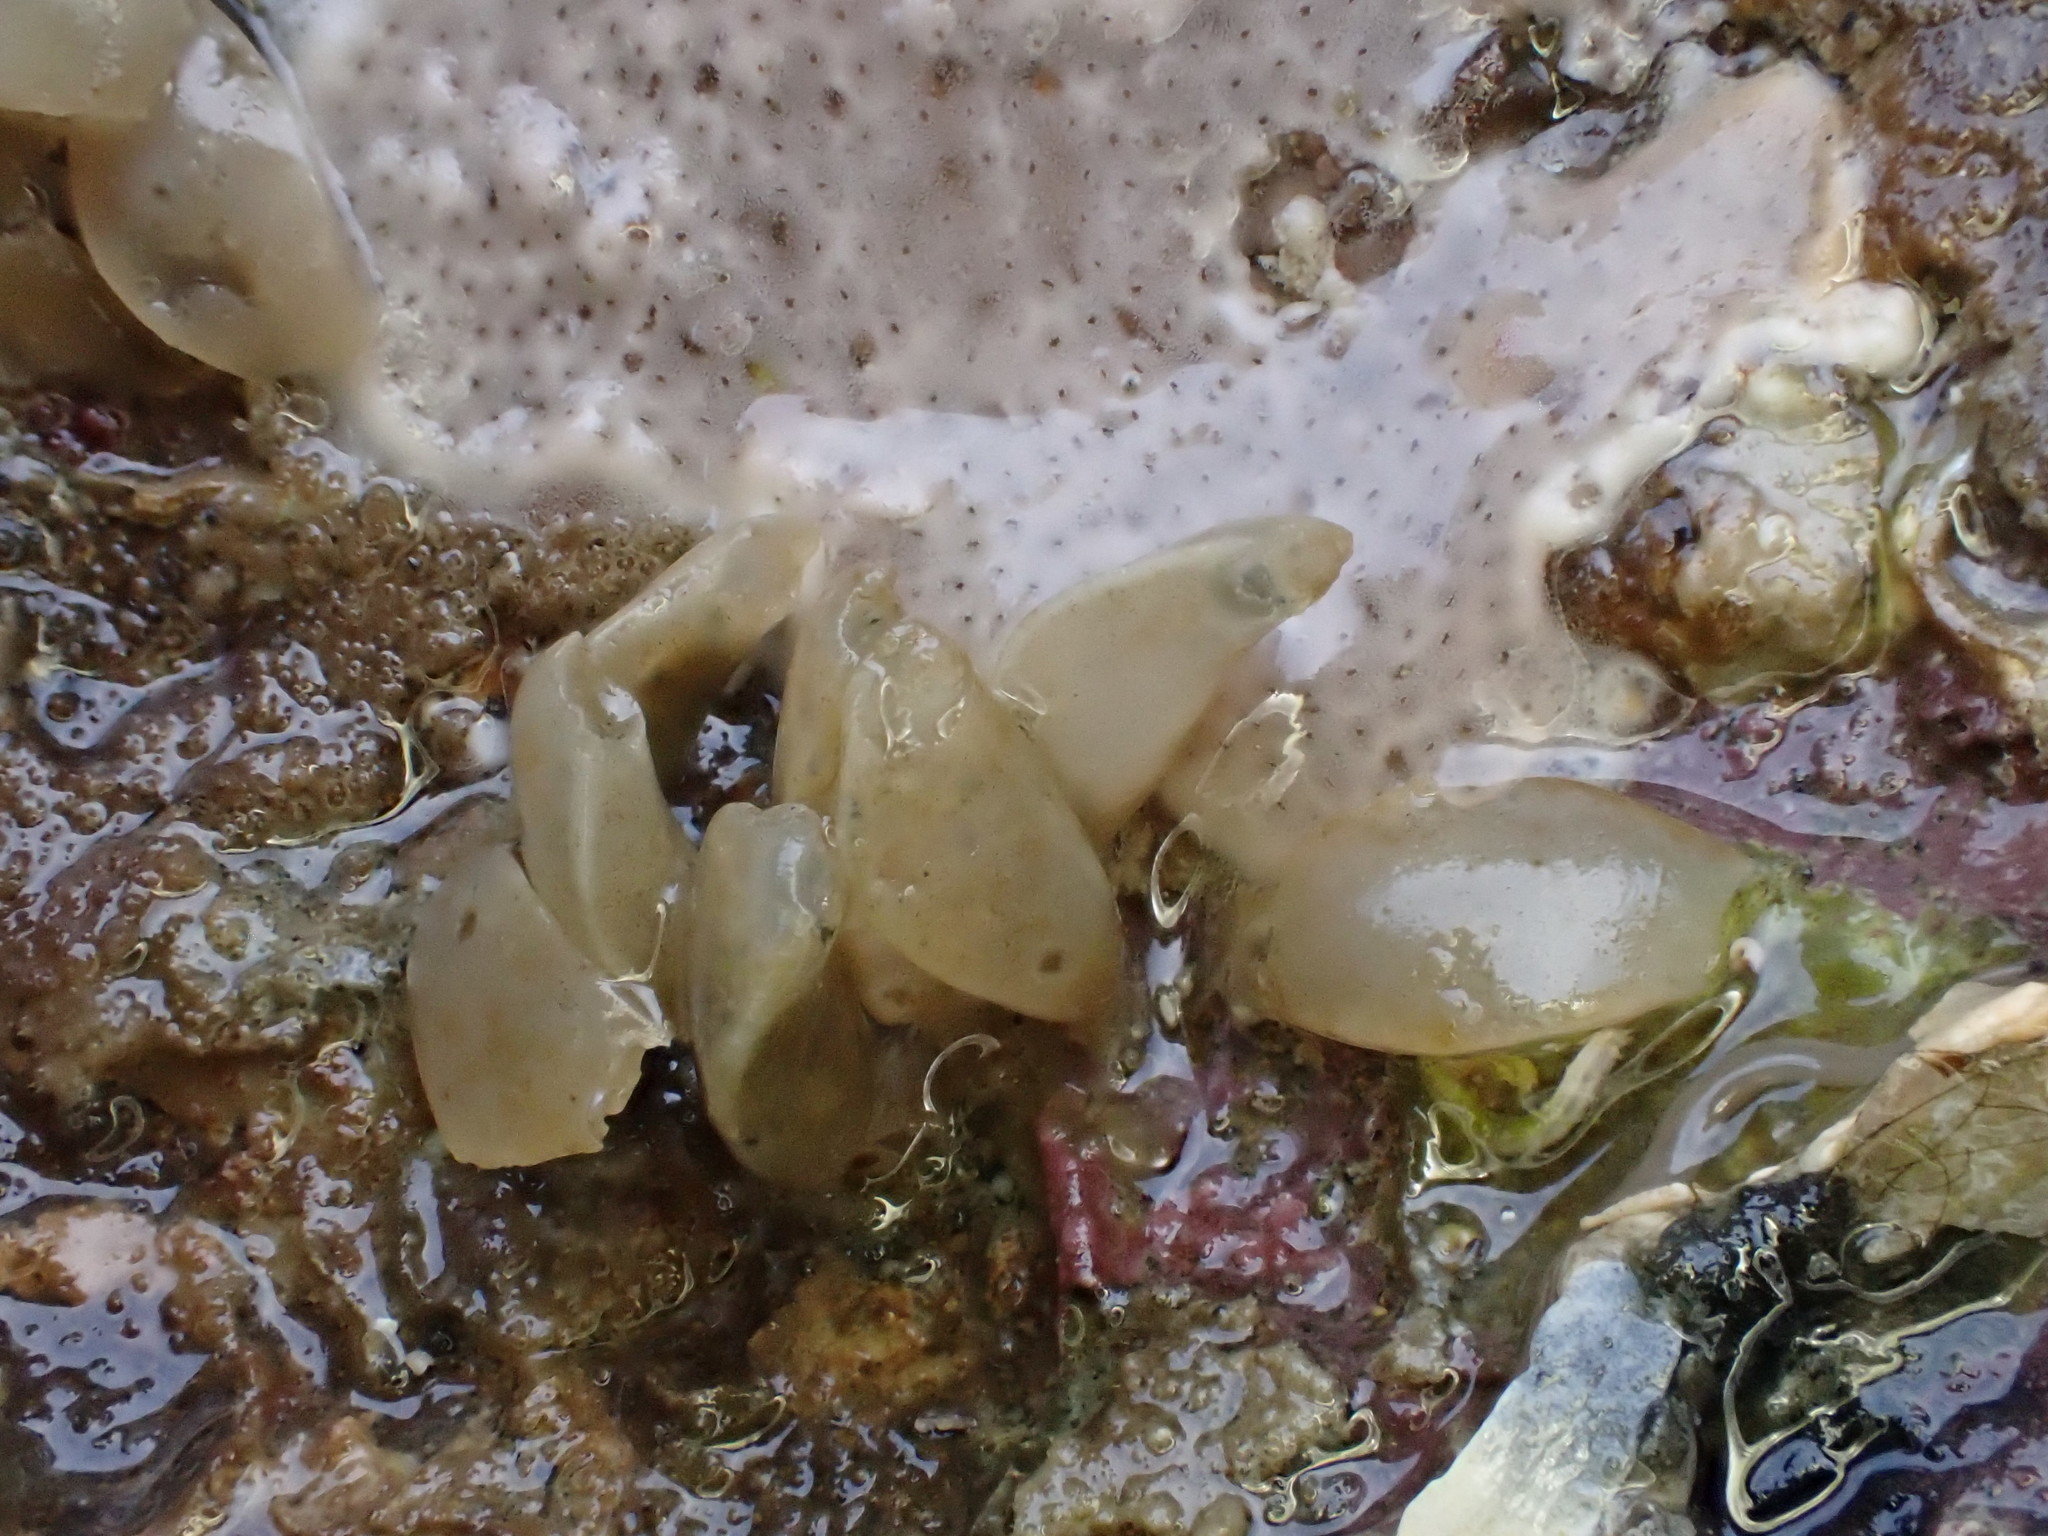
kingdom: Animalia
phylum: Mollusca
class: Gastropoda
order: Neogastropoda
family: Cominellidae
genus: Cominella
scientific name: Cominella maculosa
